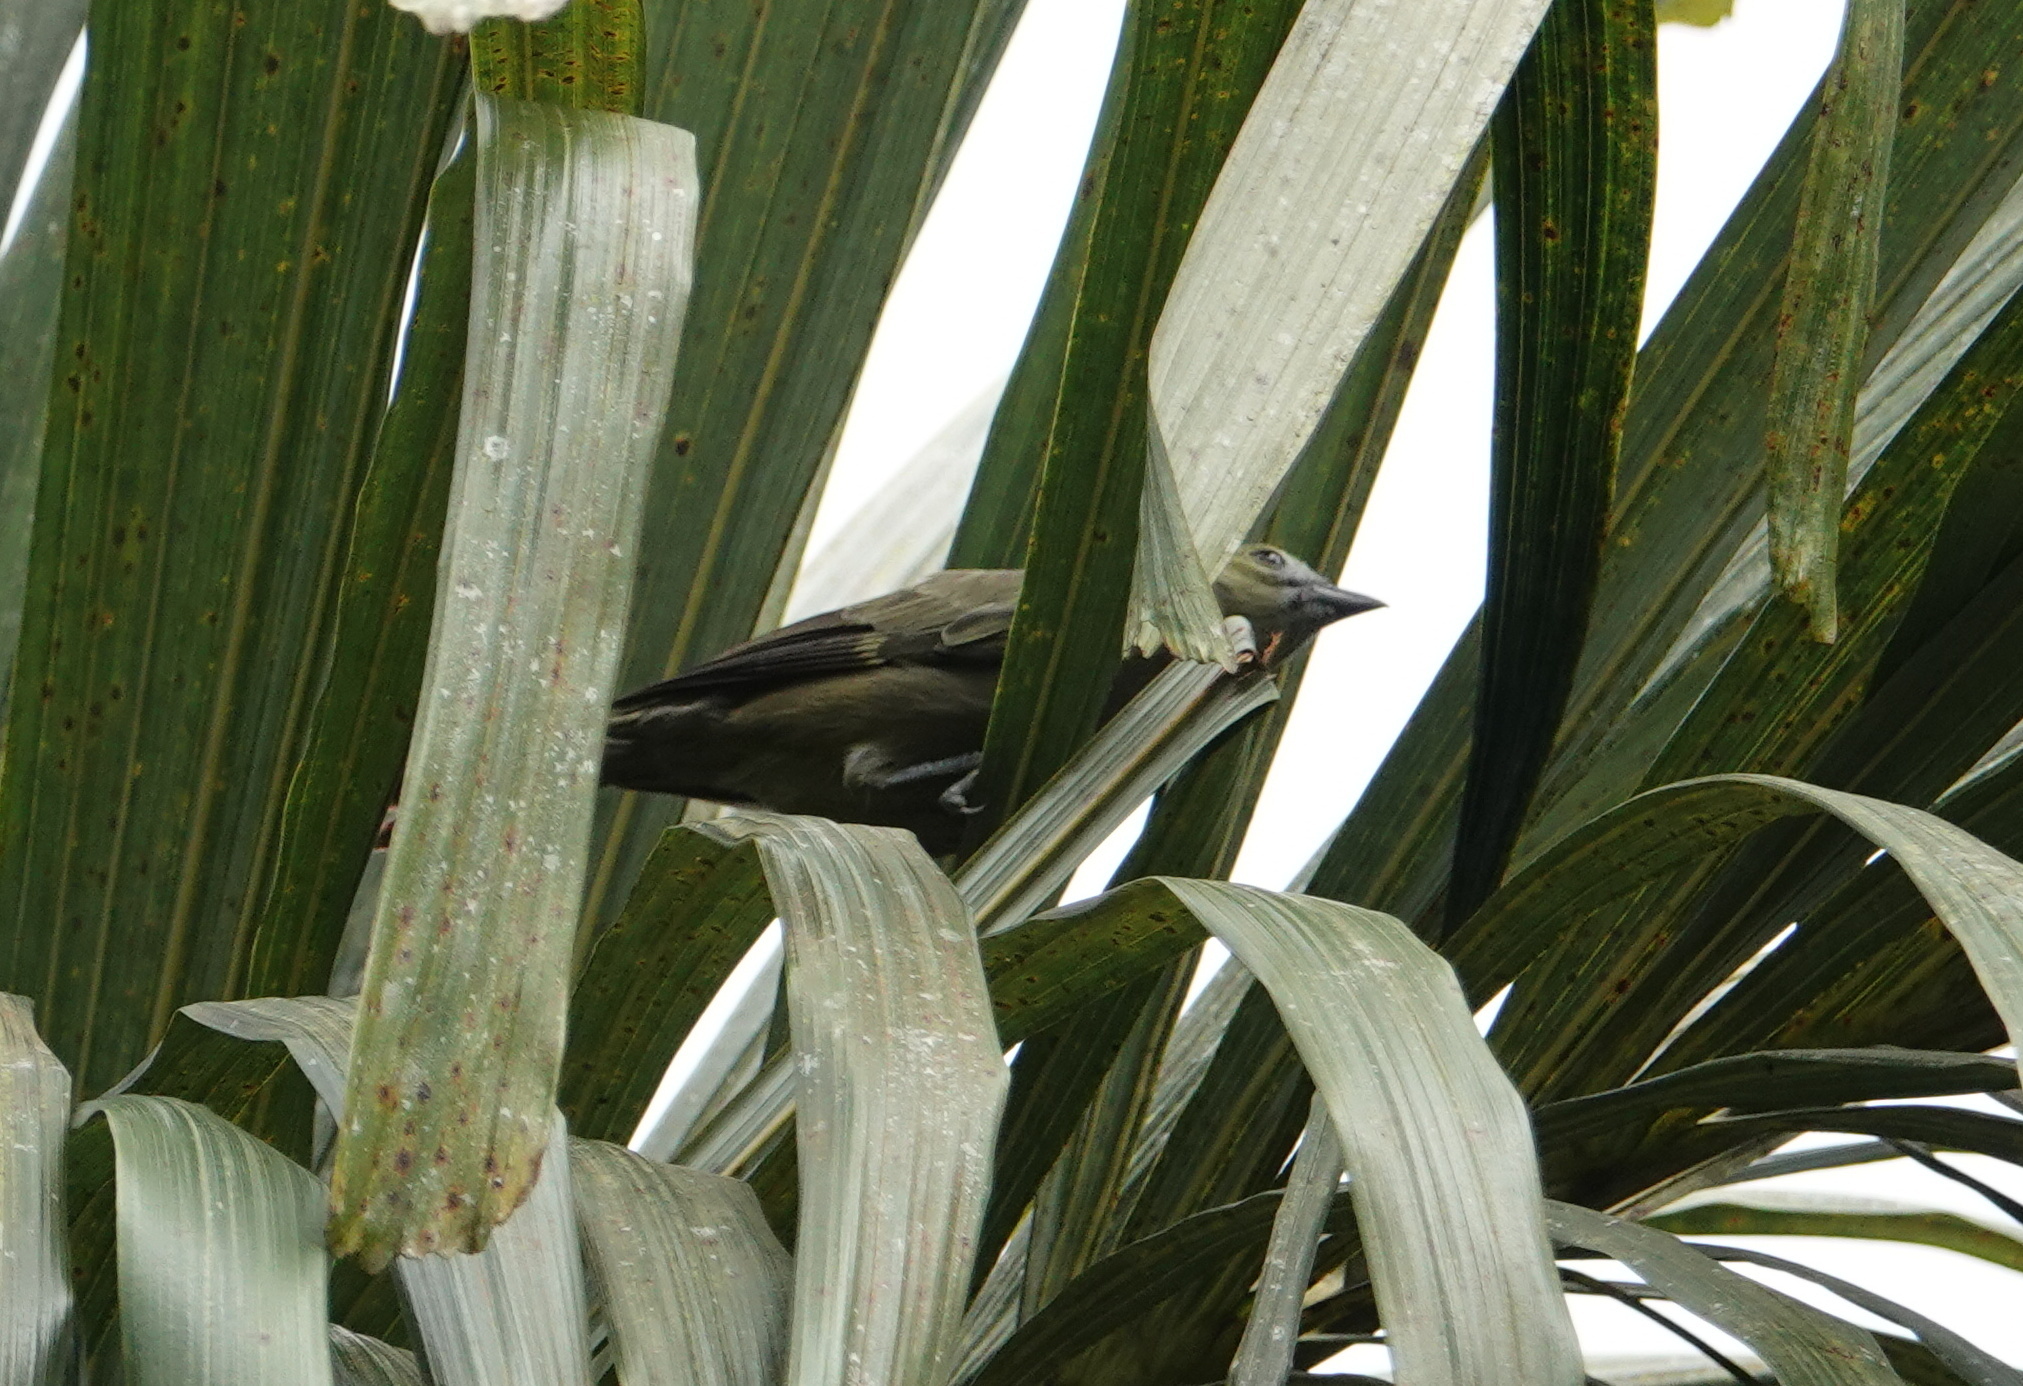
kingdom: Animalia
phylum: Chordata
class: Aves
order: Passeriformes
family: Thraupidae
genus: Thraupis
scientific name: Thraupis palmarum
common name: Palm tanager
